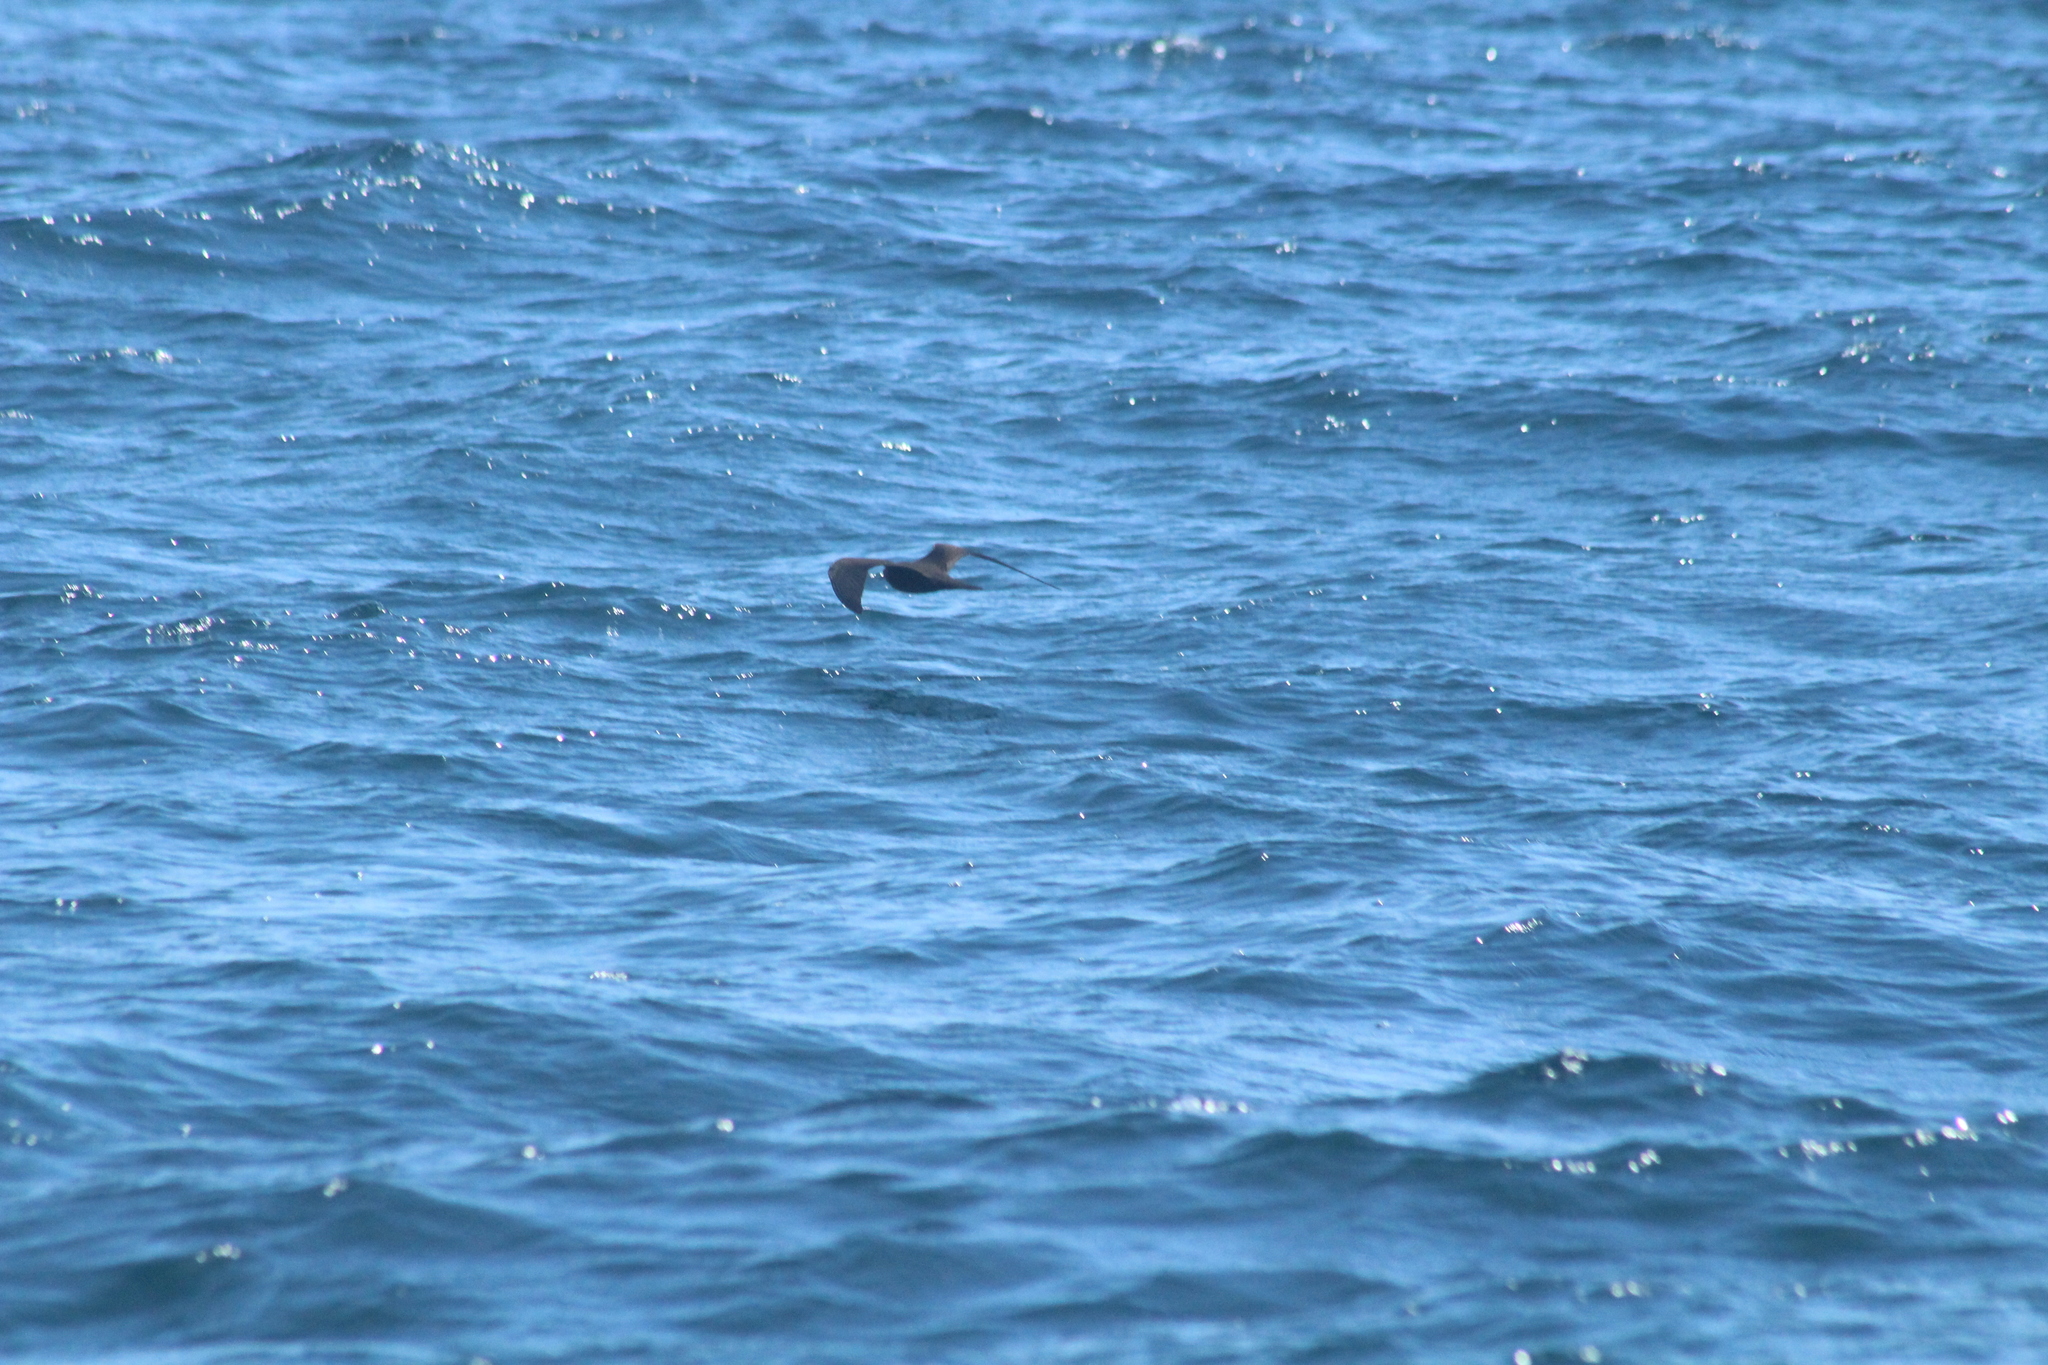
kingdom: Animalia
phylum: Chordata
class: Aves
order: Charadriiformes
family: Laridae
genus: Anous
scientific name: Anous stolidus
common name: Brown noddy
